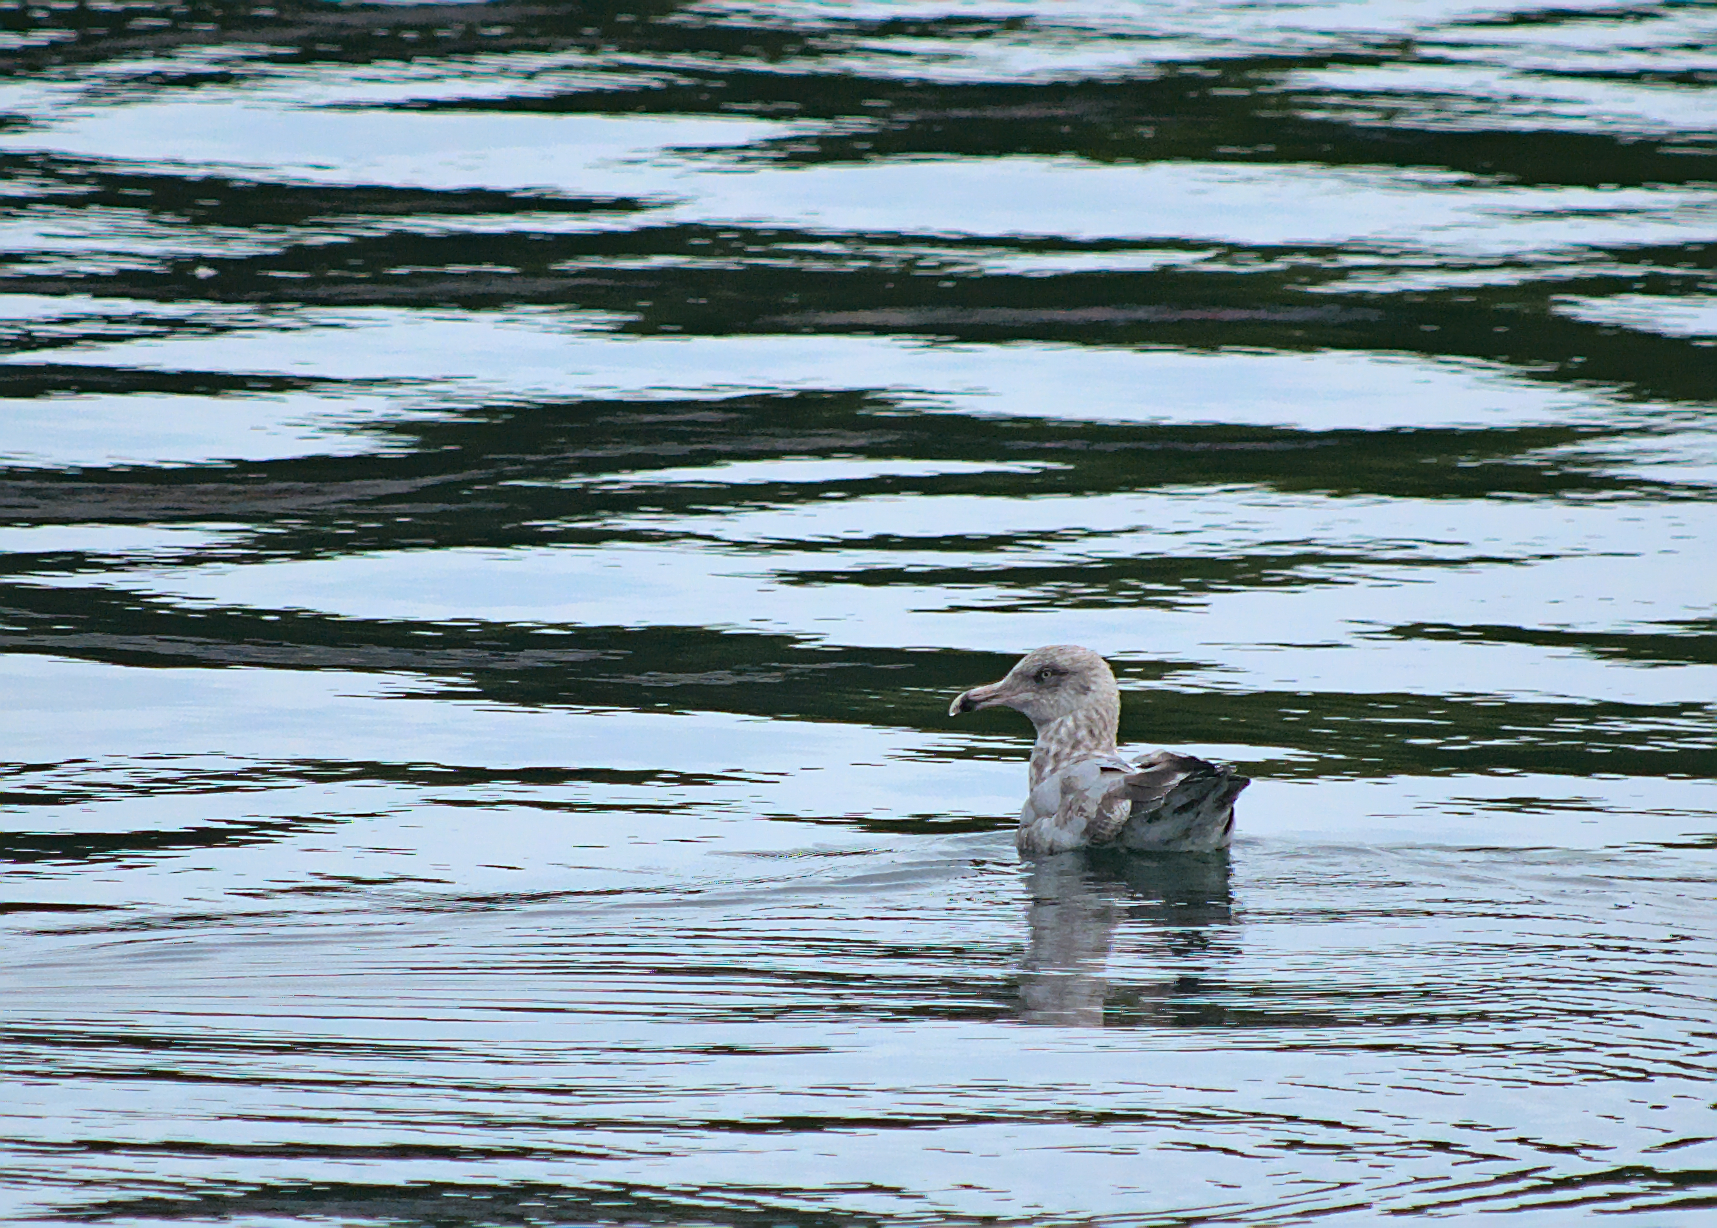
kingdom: Animalia
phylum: Chordata
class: Aves
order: Charadriiformes
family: Laridae
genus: Larus
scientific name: Larus delawarensis
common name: Ring-billed gull
